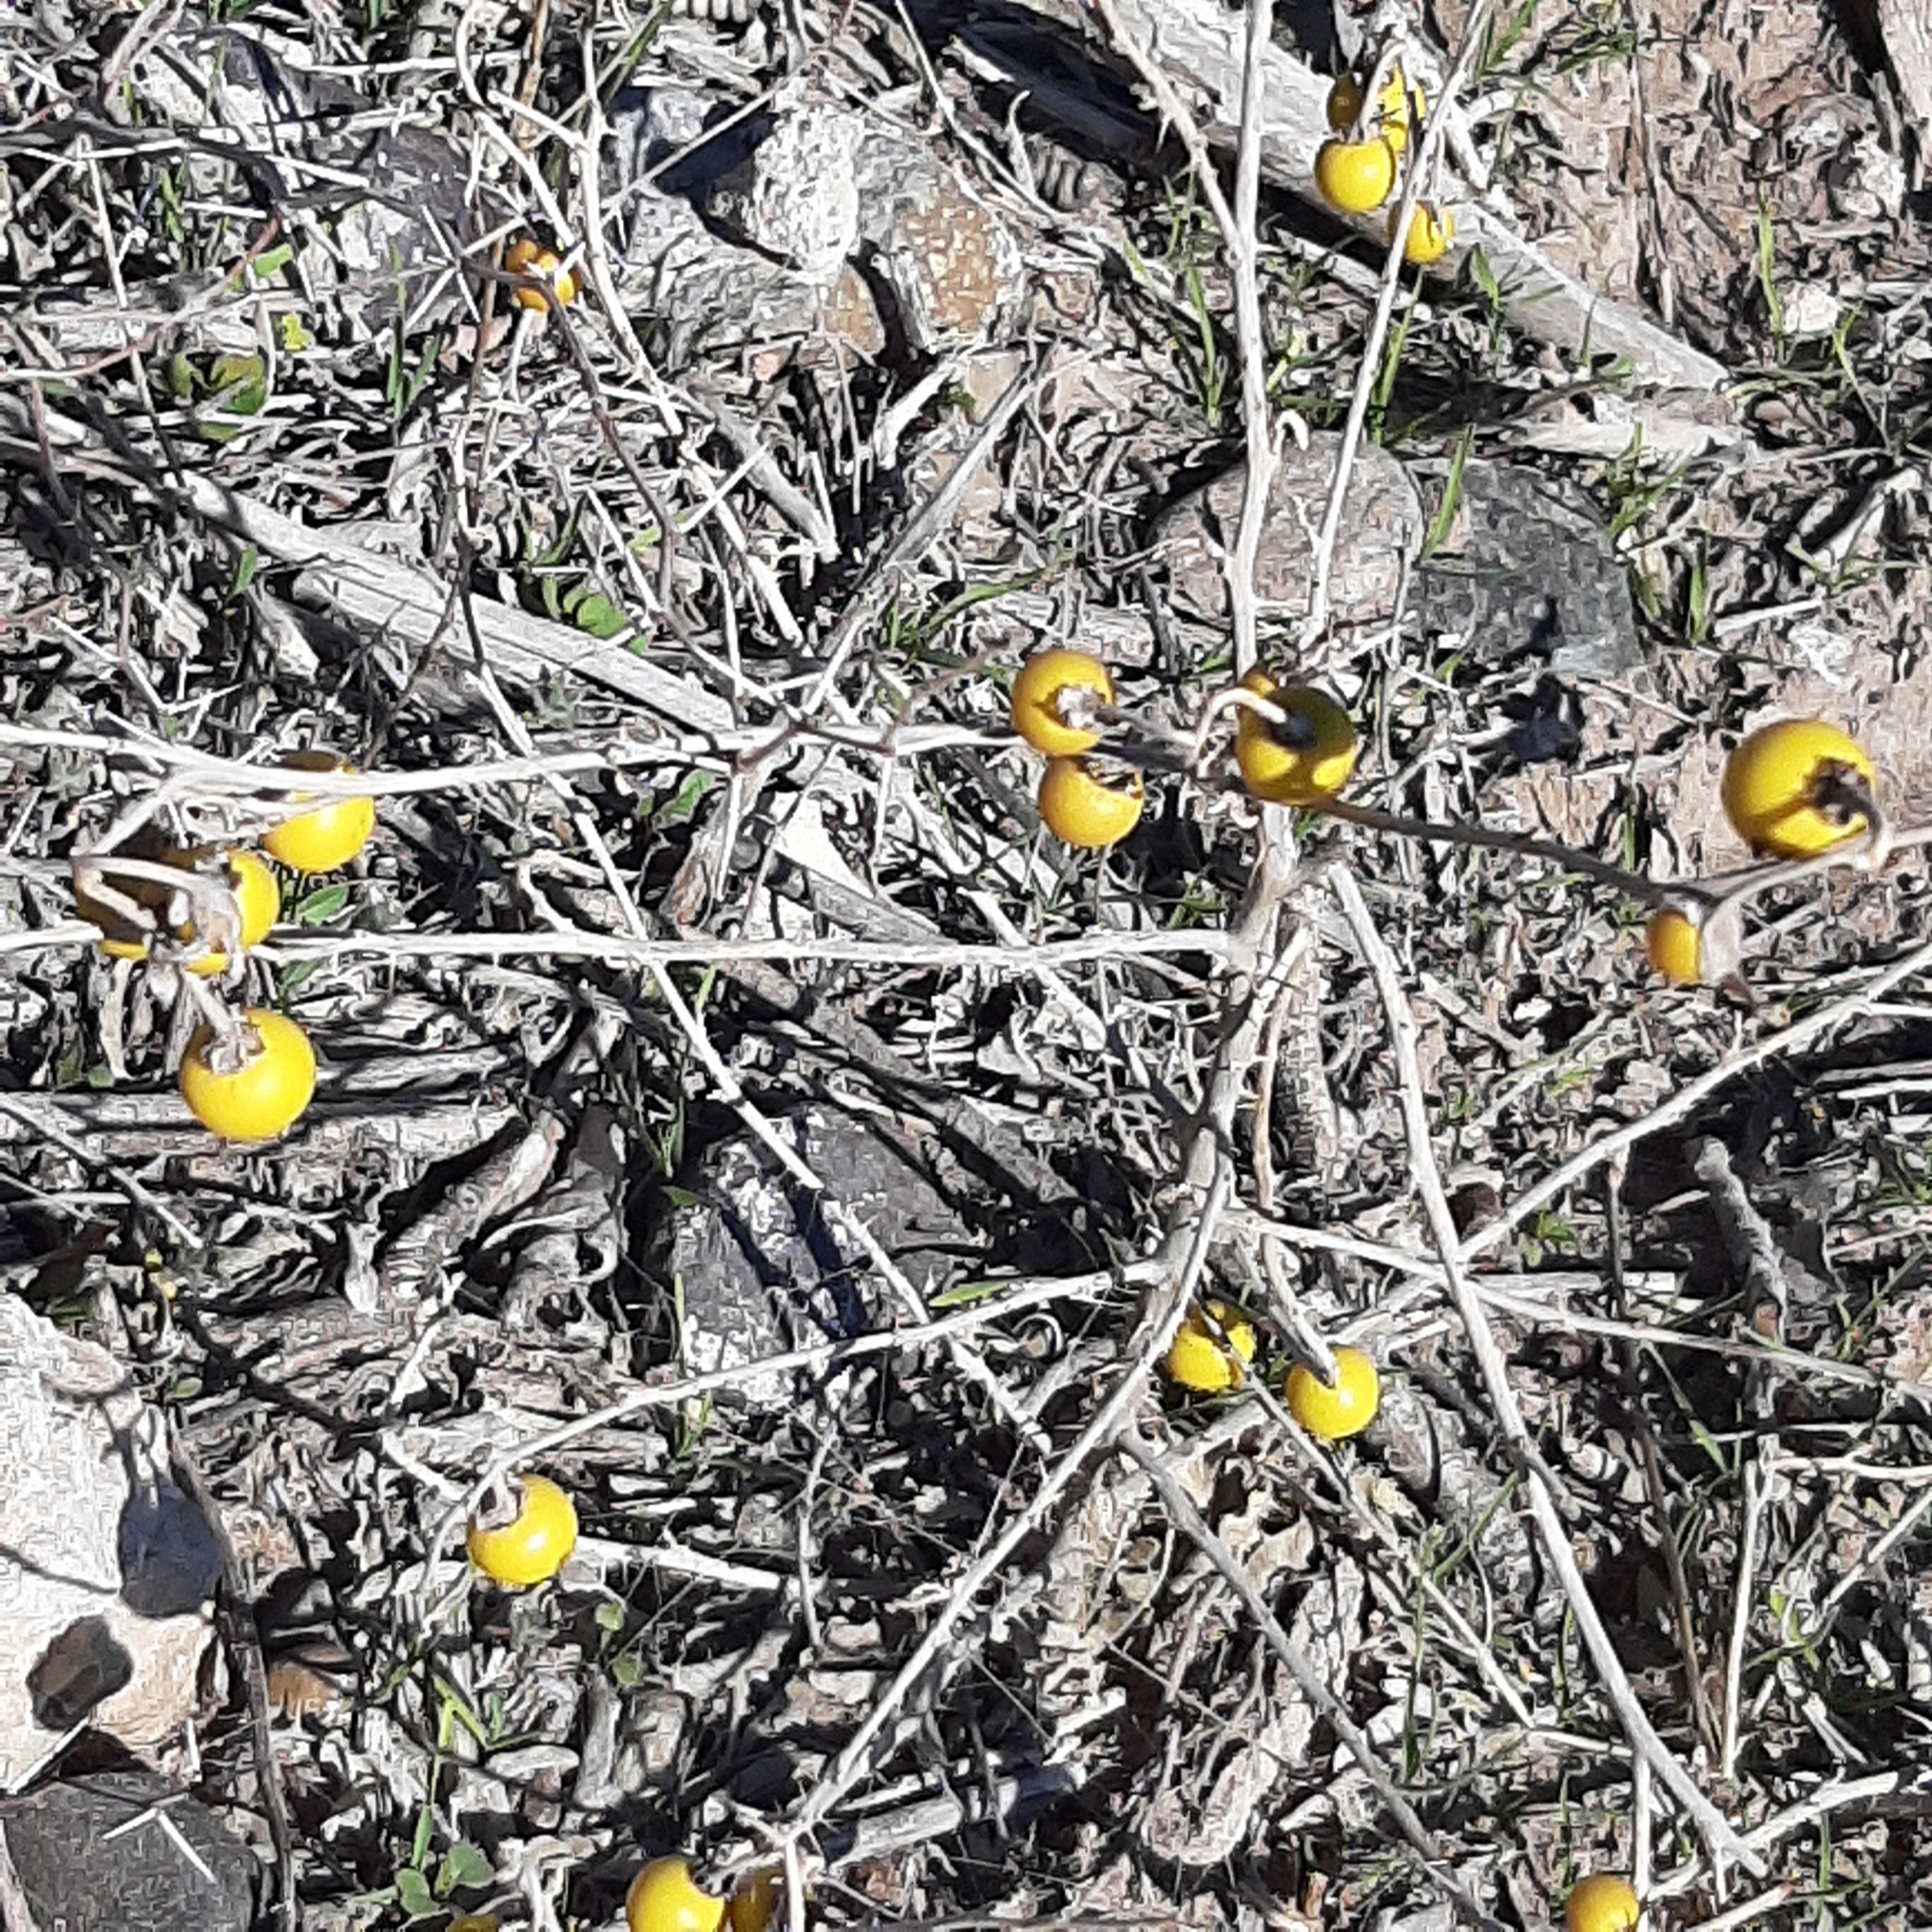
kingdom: Plantae
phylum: Tracheophyta
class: Magnoliopsida
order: Solanales
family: Solanaceae
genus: Solanum
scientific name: Solanum elaeagnifolium
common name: Silverleaf nightshade
